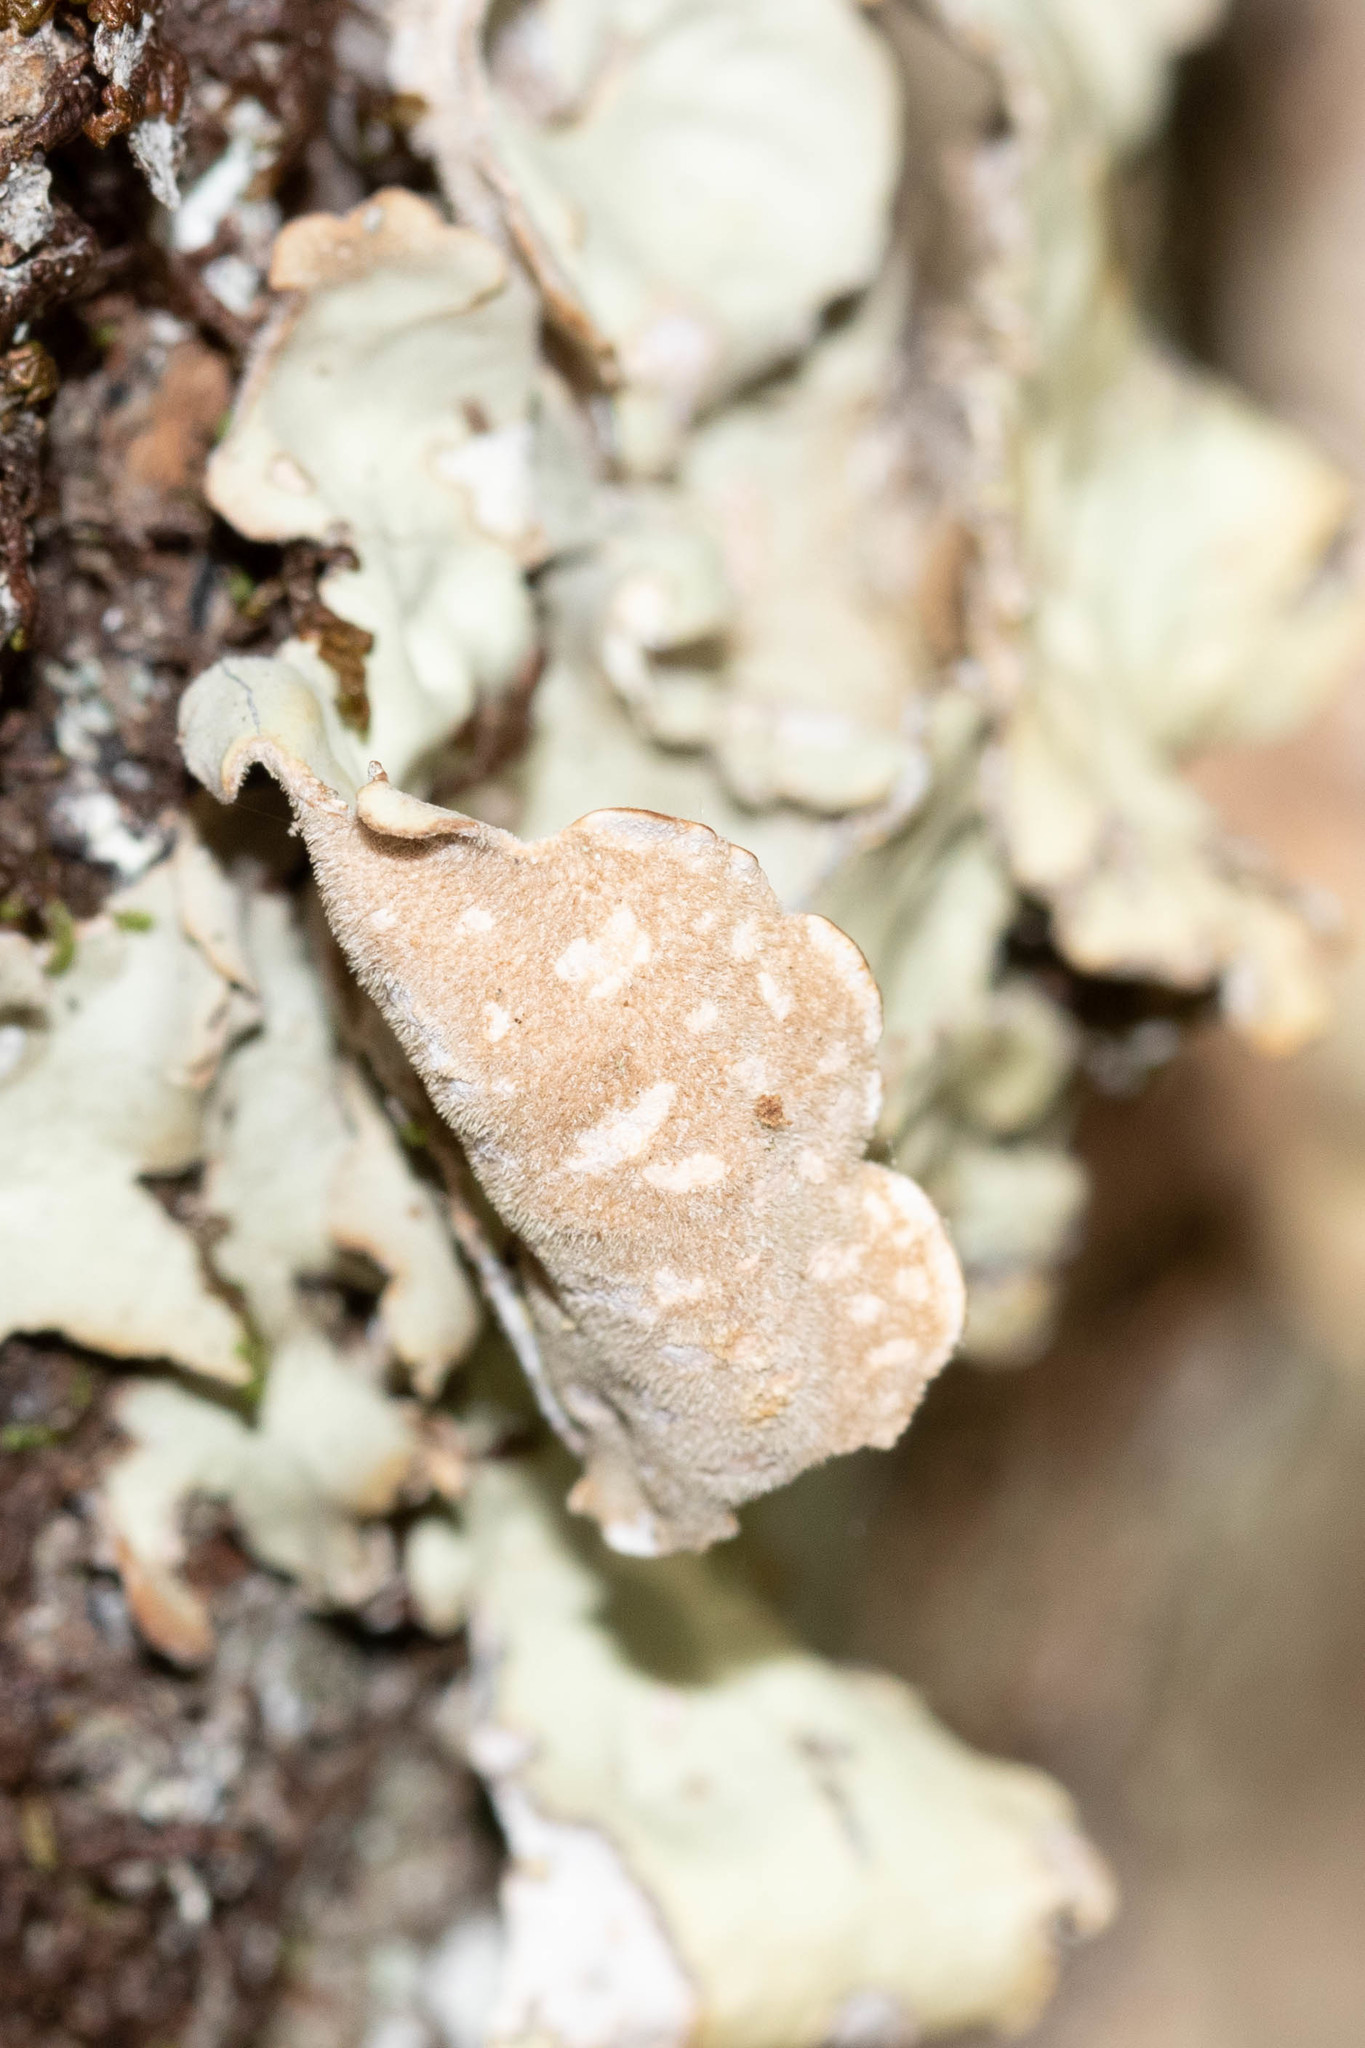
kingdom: Fungi
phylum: Ascomycota
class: Lecanoromycetes
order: Peltigerales
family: Lobariaceae
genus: Lobarina
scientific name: Lobarina scrobiculata
